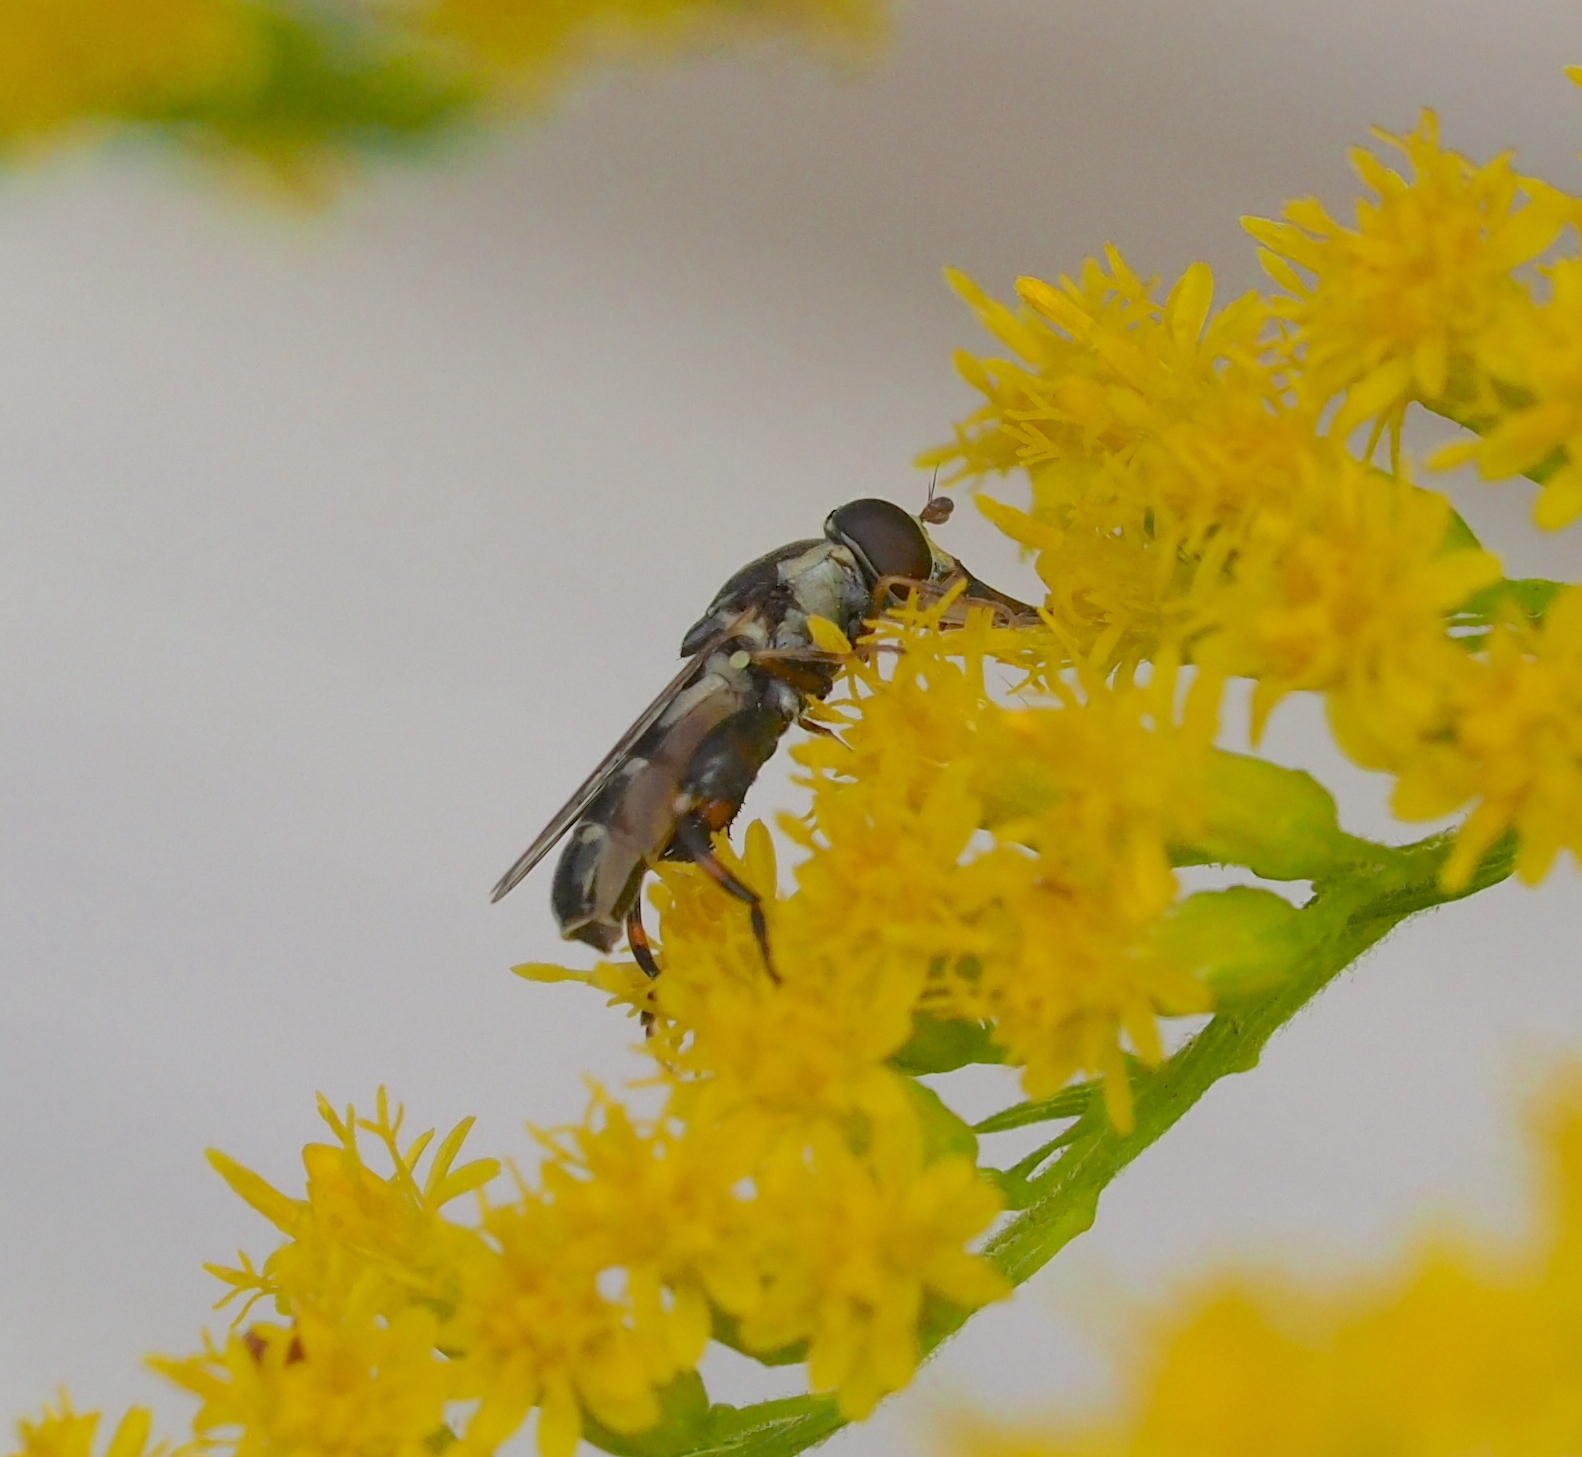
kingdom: Animalia
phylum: Arthropoda
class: Insecta
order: Diptera
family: Syrphidae
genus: Syritta
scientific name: Syritta pipiens
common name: Hover fly
